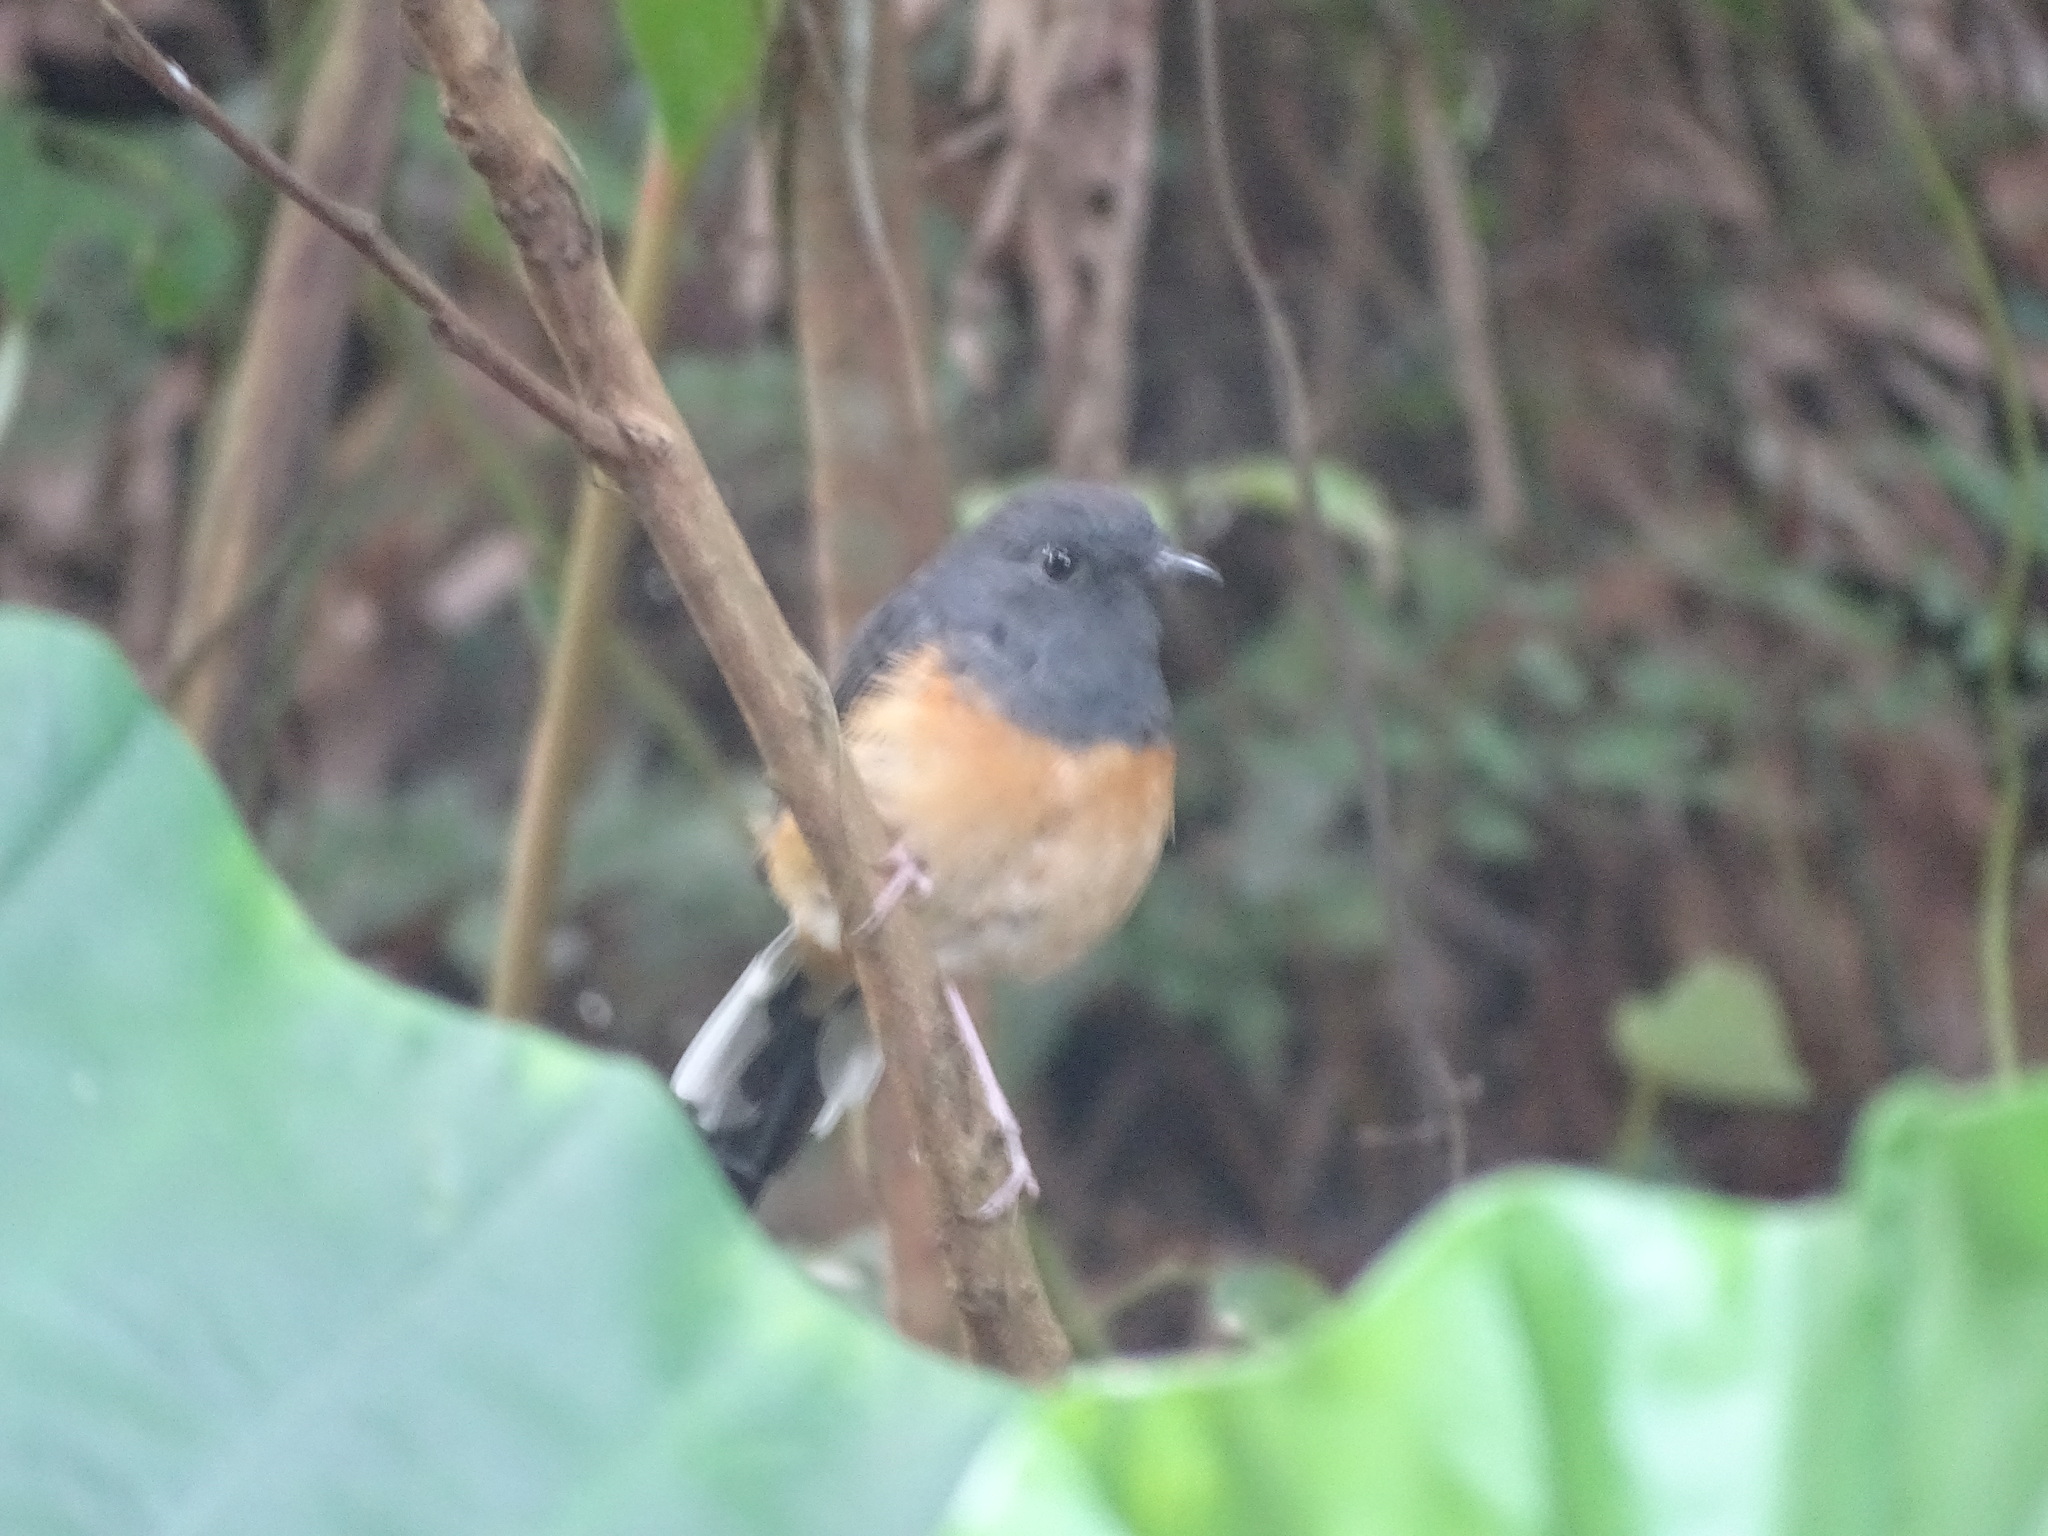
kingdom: Animalia
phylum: Chordata
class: Aves
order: Passeriformes
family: Muscicapidae
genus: Copsychus
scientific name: Copsychus malabaricus
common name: White-rumped shama
